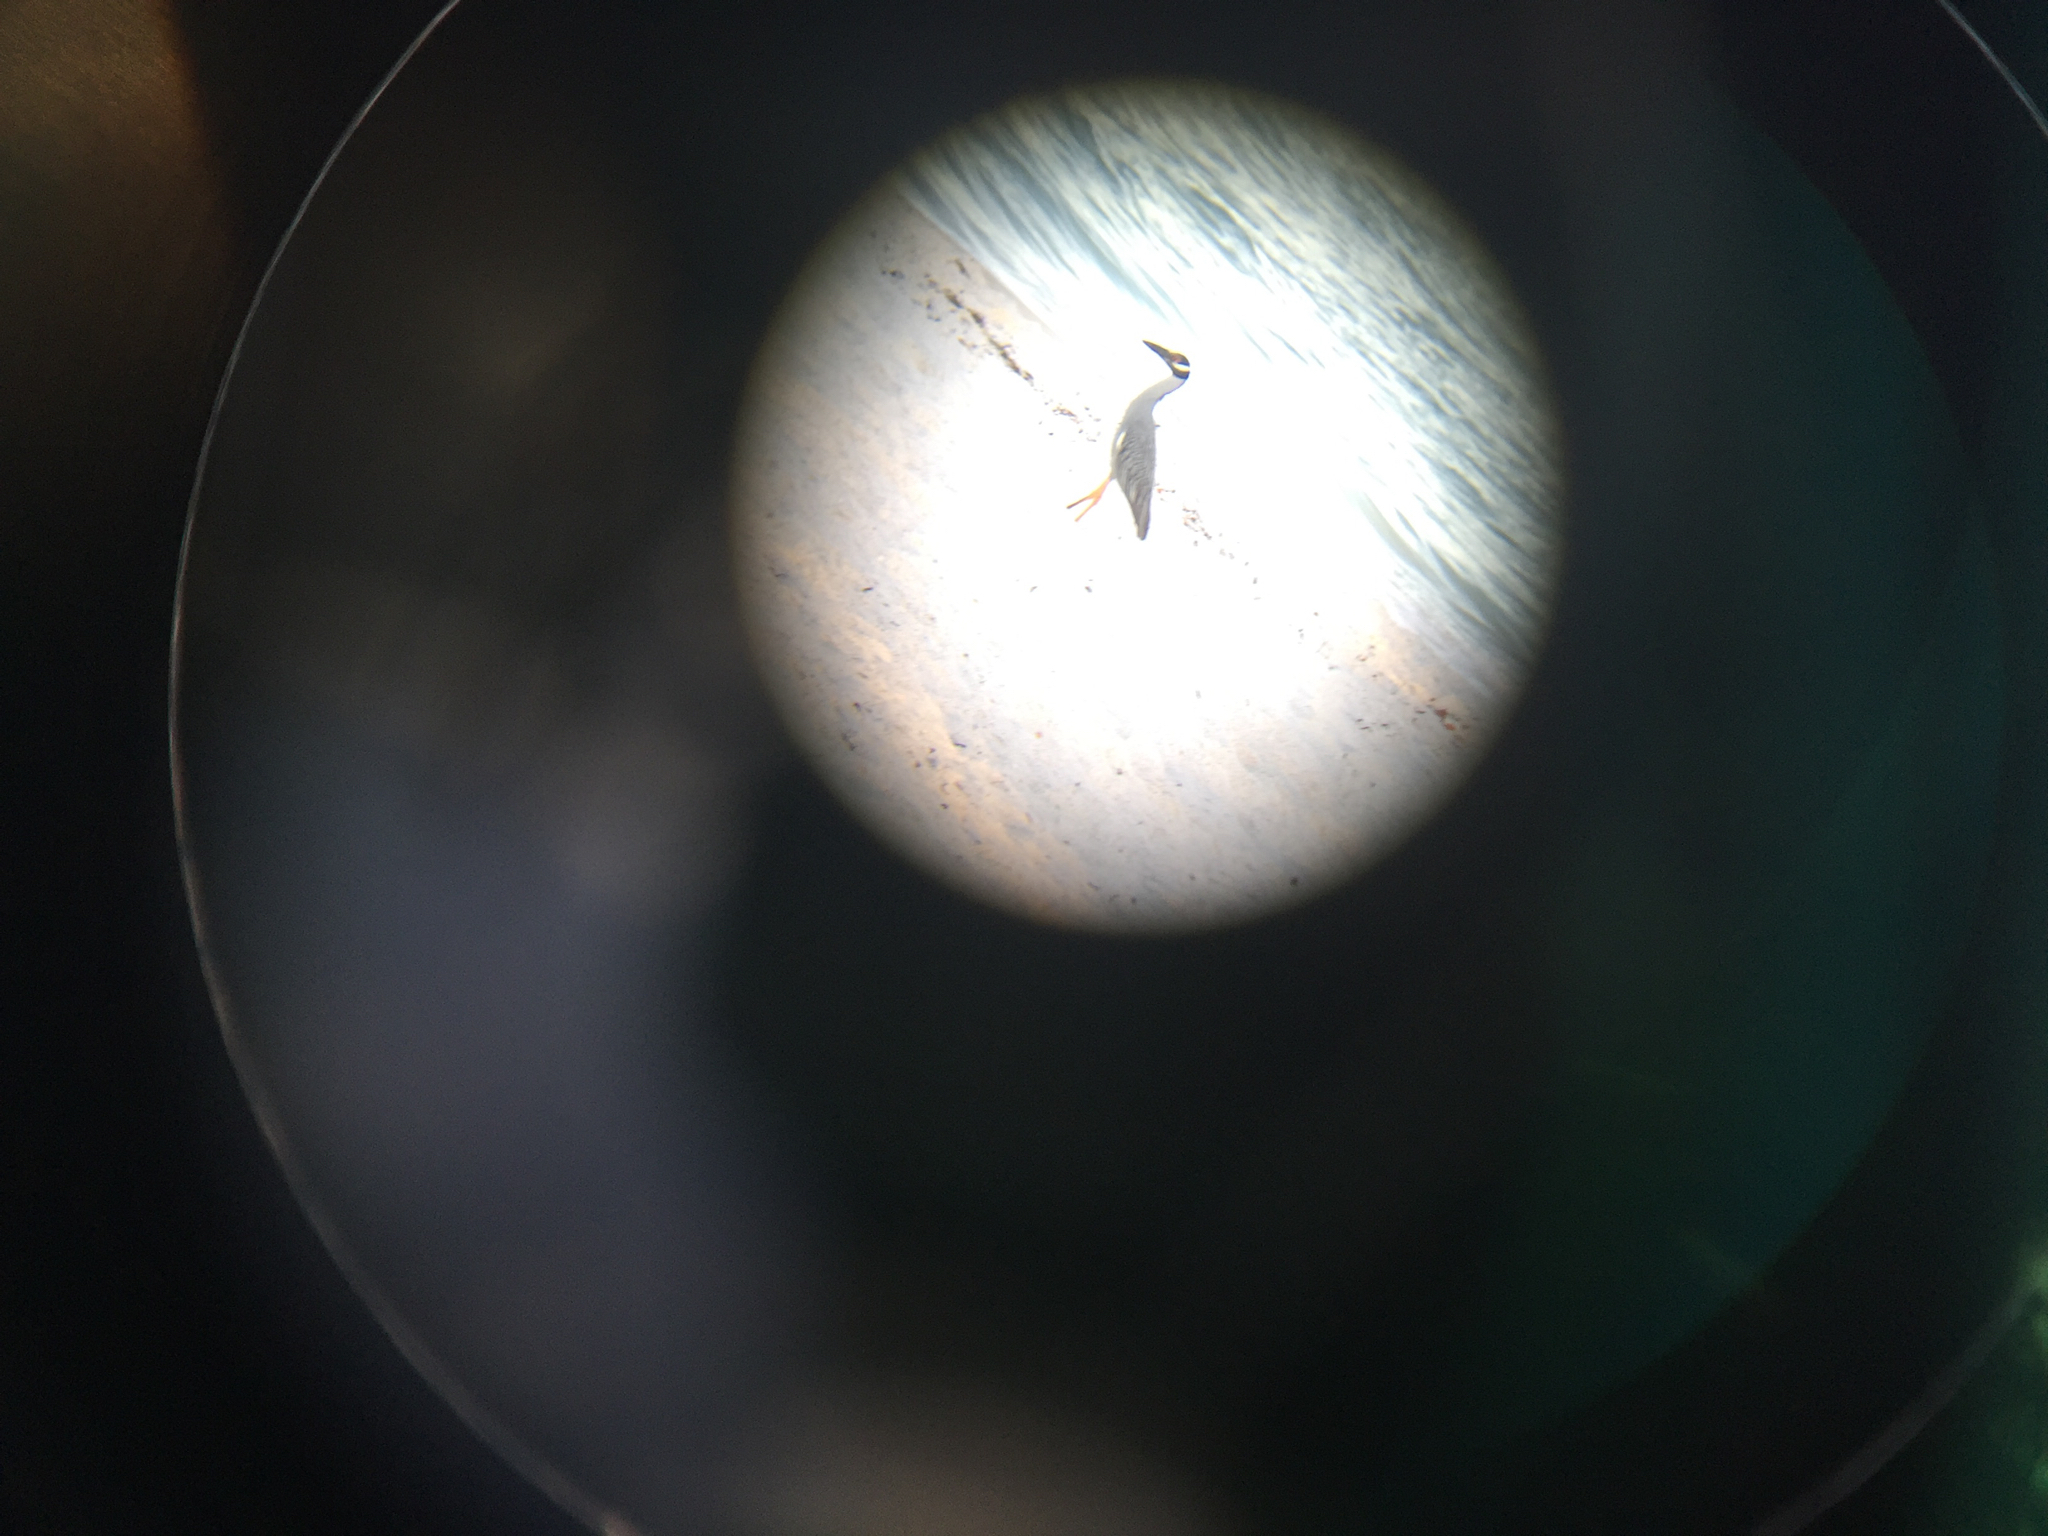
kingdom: Animalia
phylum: Chordata
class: Aves
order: Pelecaniformes
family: Ardeidae
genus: Nyctanassa
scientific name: Nyctanassa violacea
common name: Yellow-crowned night heron
